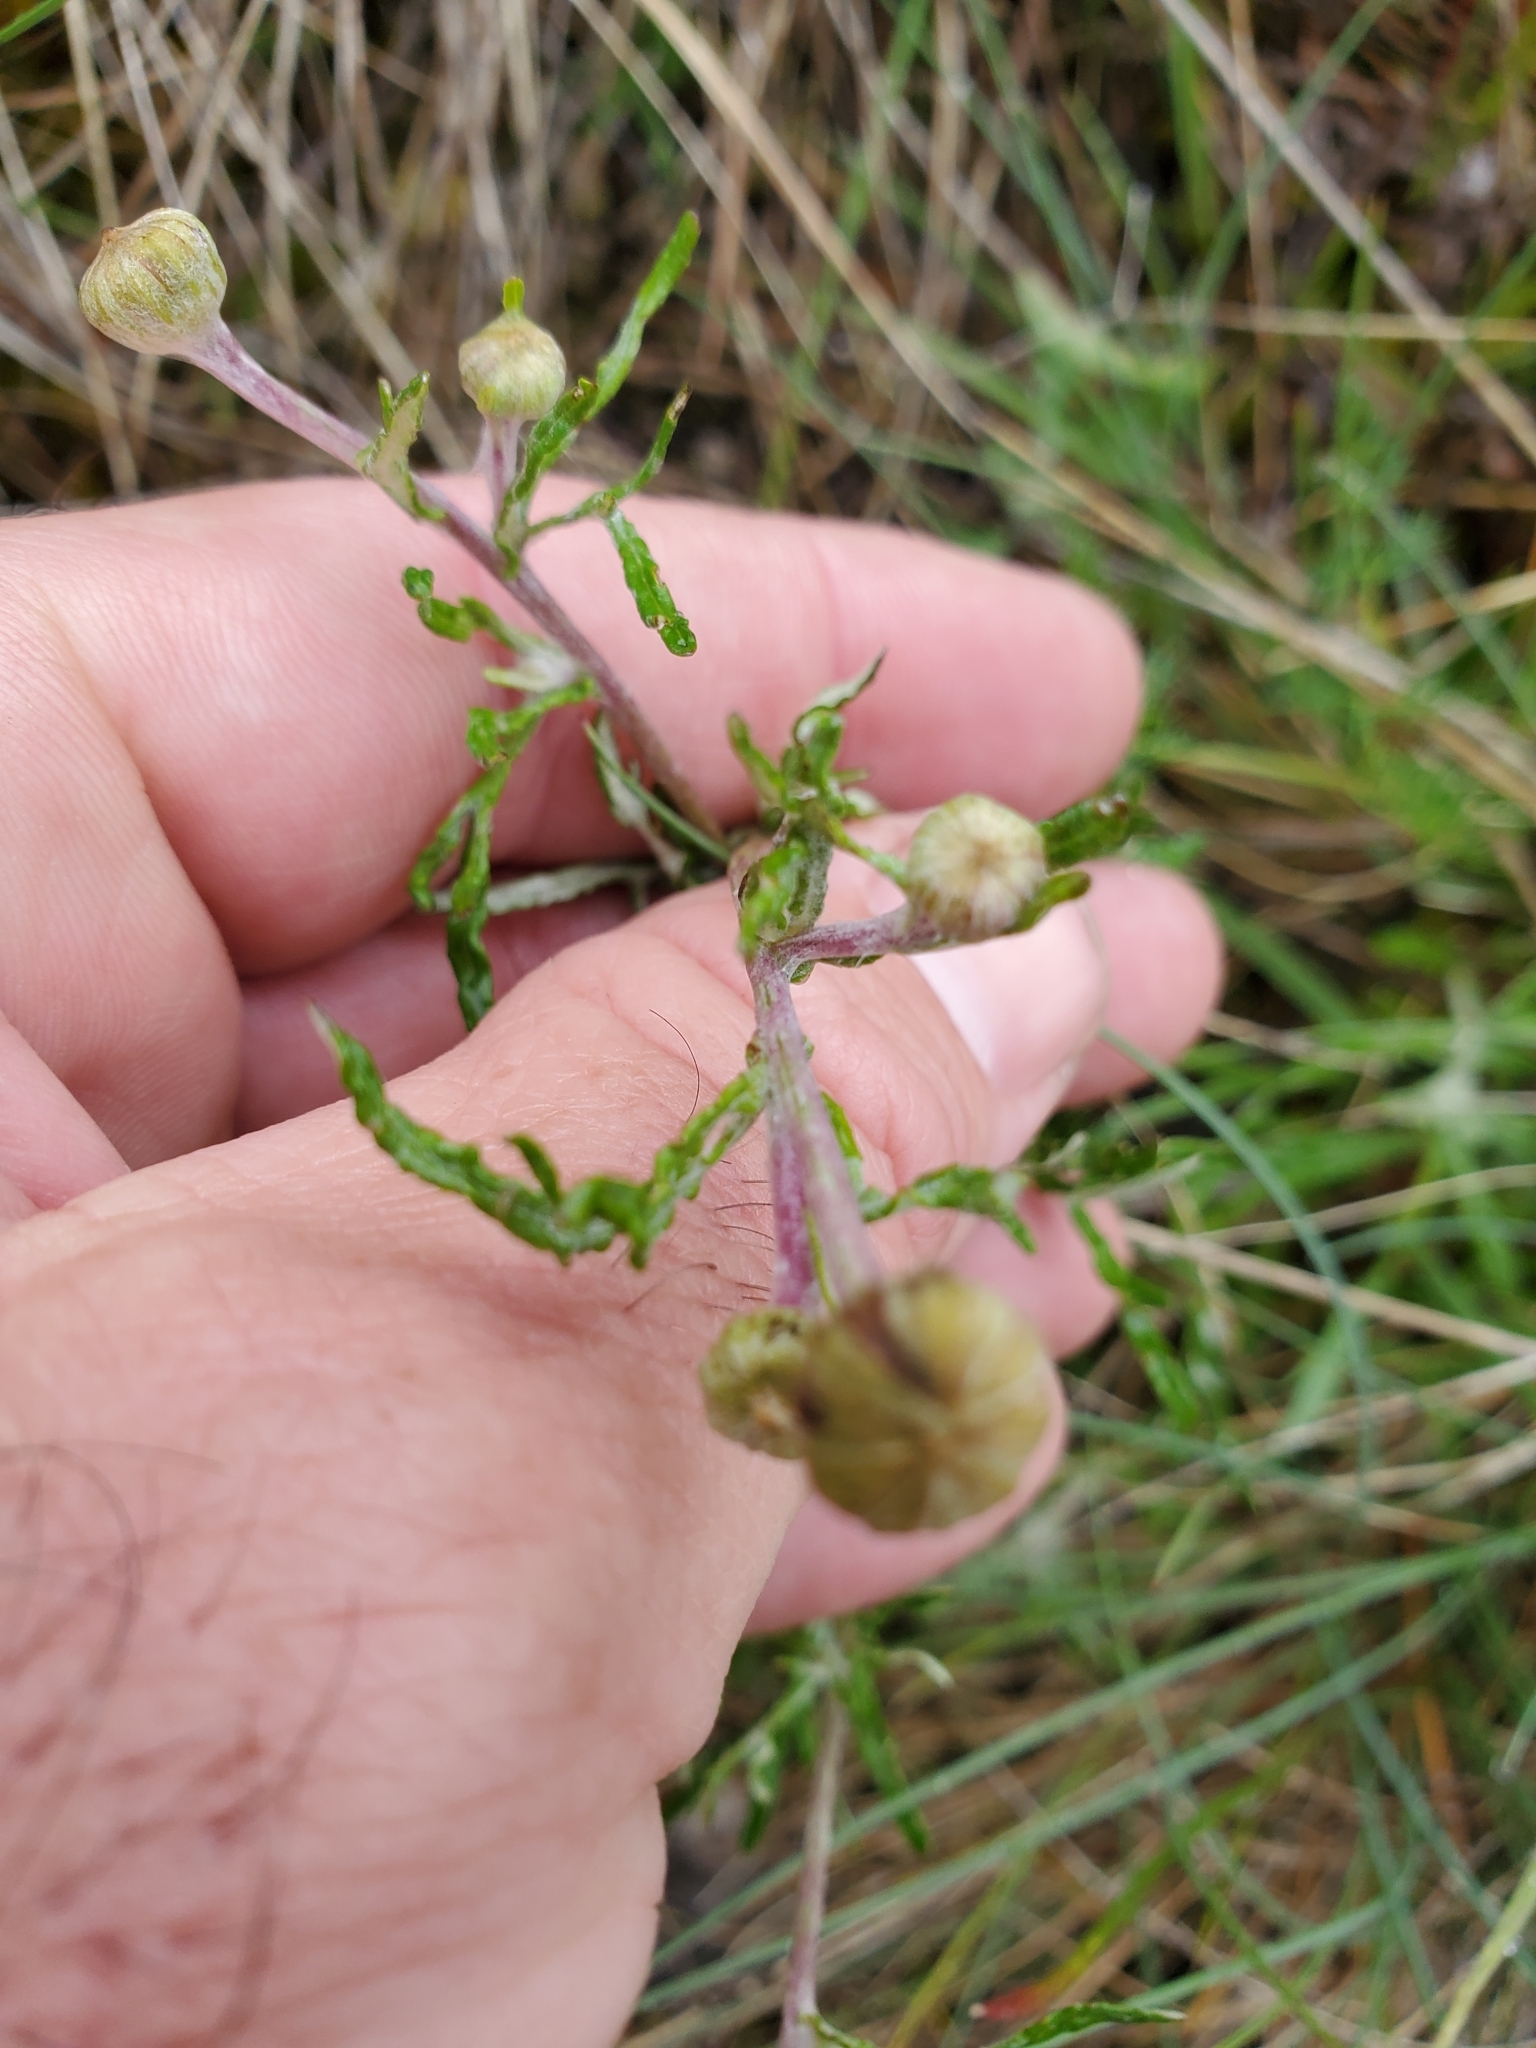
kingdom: Plantae
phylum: Tracheophyta
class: Magnoliopsida
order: Asterales
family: Asteraceae
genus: Eriophyllum
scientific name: Eriophyllum lanatum
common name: Common woolly-sunflower
